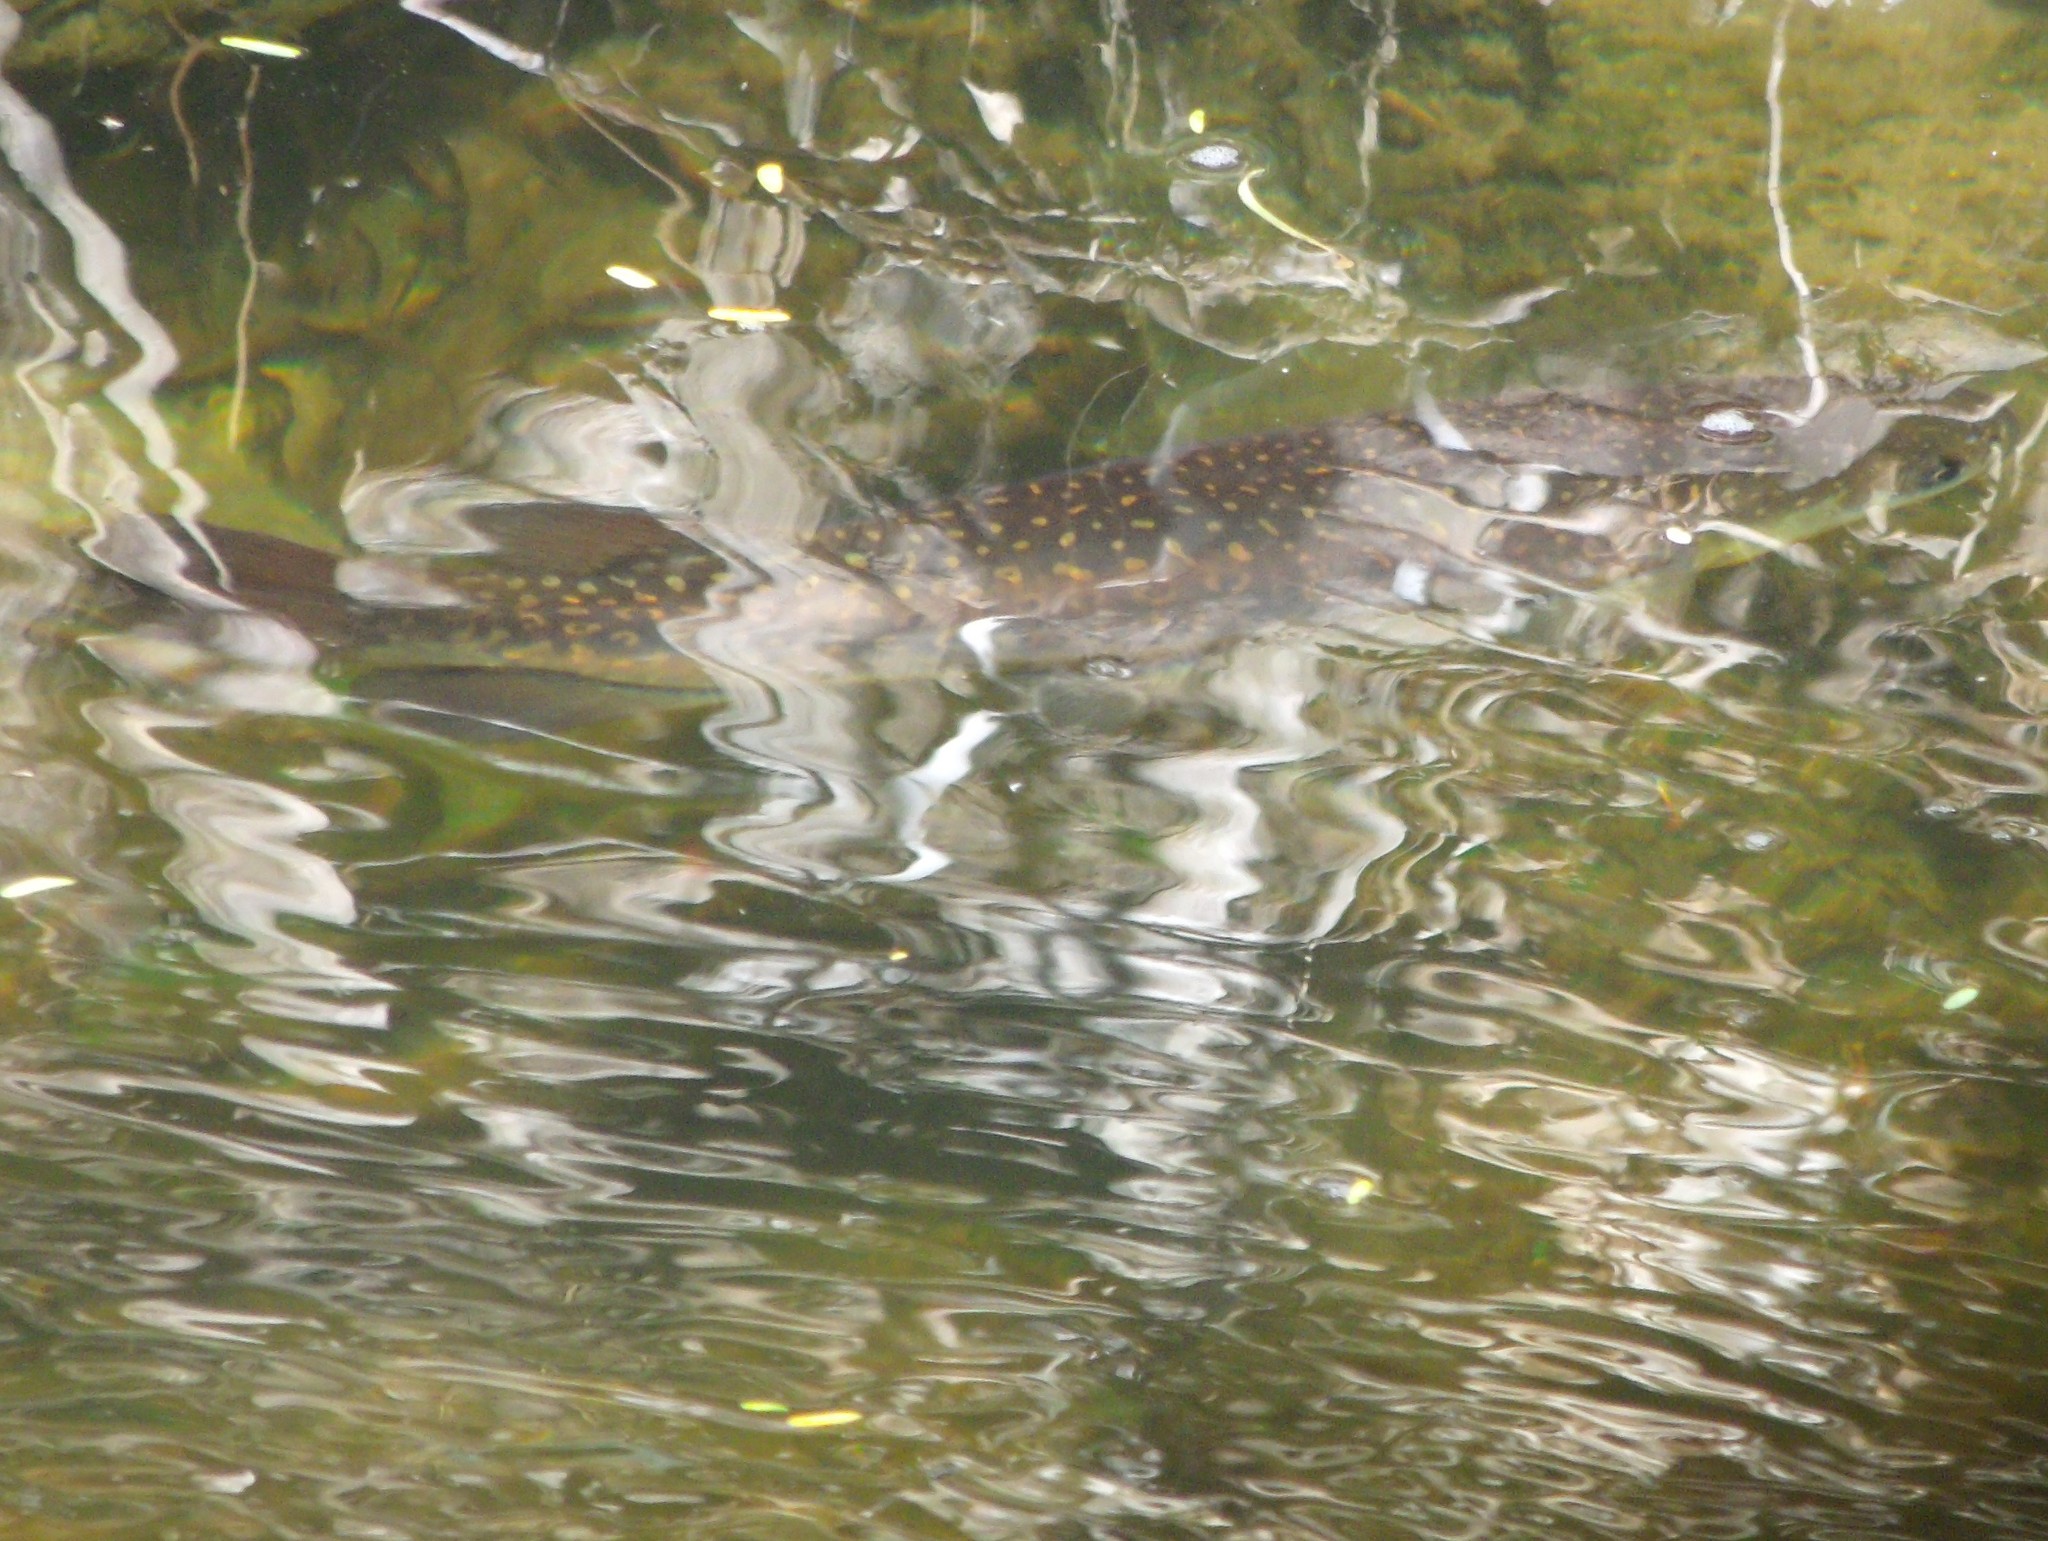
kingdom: Animalia
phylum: Chordata
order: Osmeriformes
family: Galaxiidae
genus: Galaxias
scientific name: Galaxias argenteus
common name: Giant kokopu
